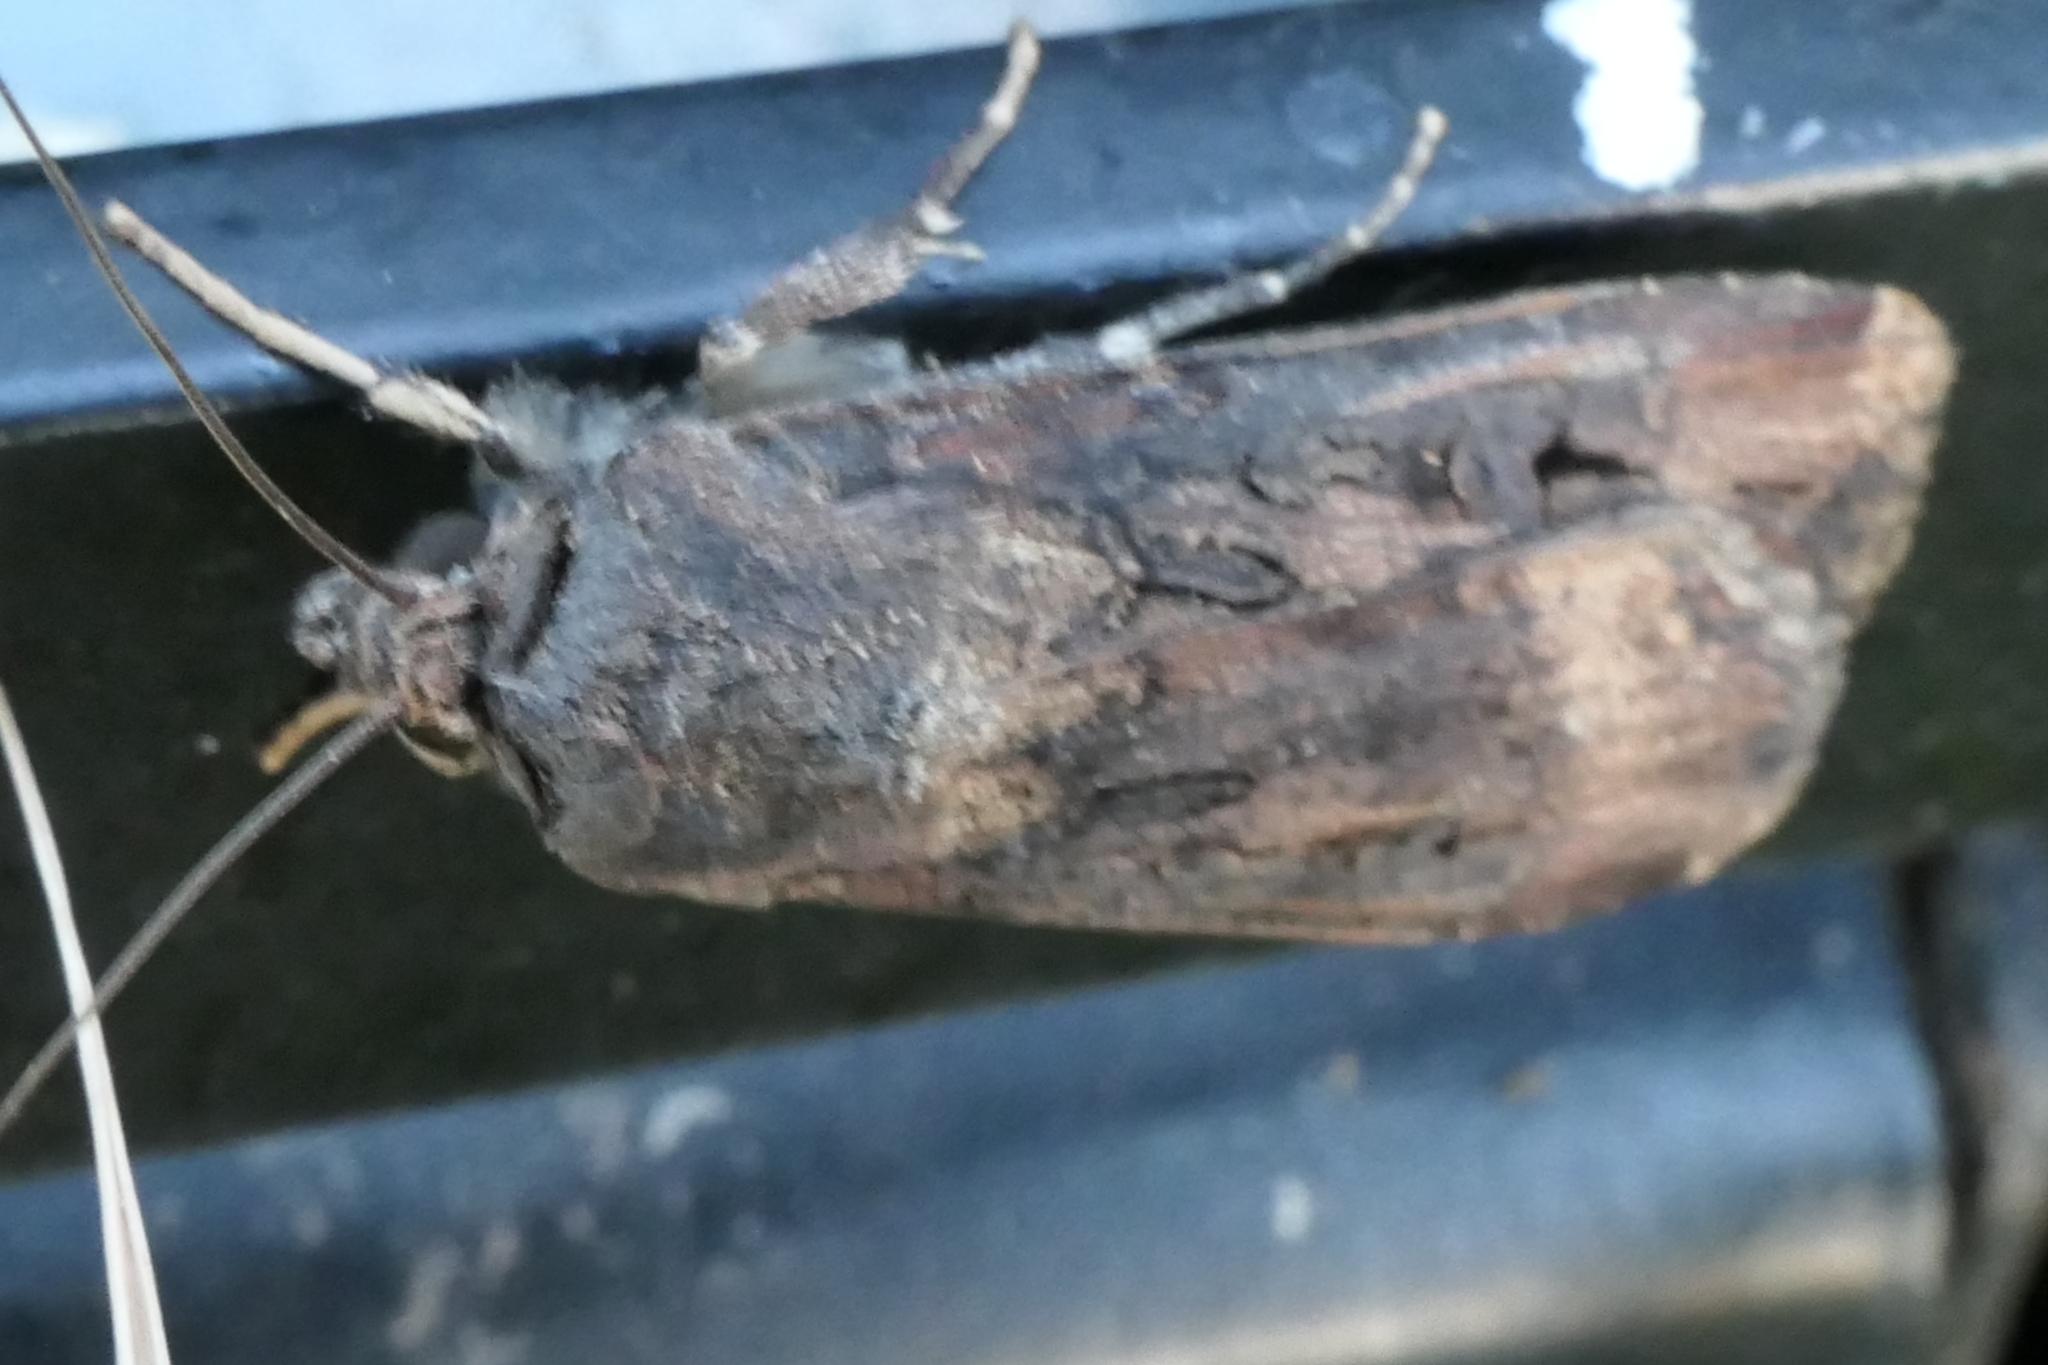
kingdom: Animalia
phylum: Arthropoda
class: Insecta
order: Lepidoptera
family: Noctuidae
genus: Agrotis
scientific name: Agrotis ipsilon
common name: Dark sword-grass
